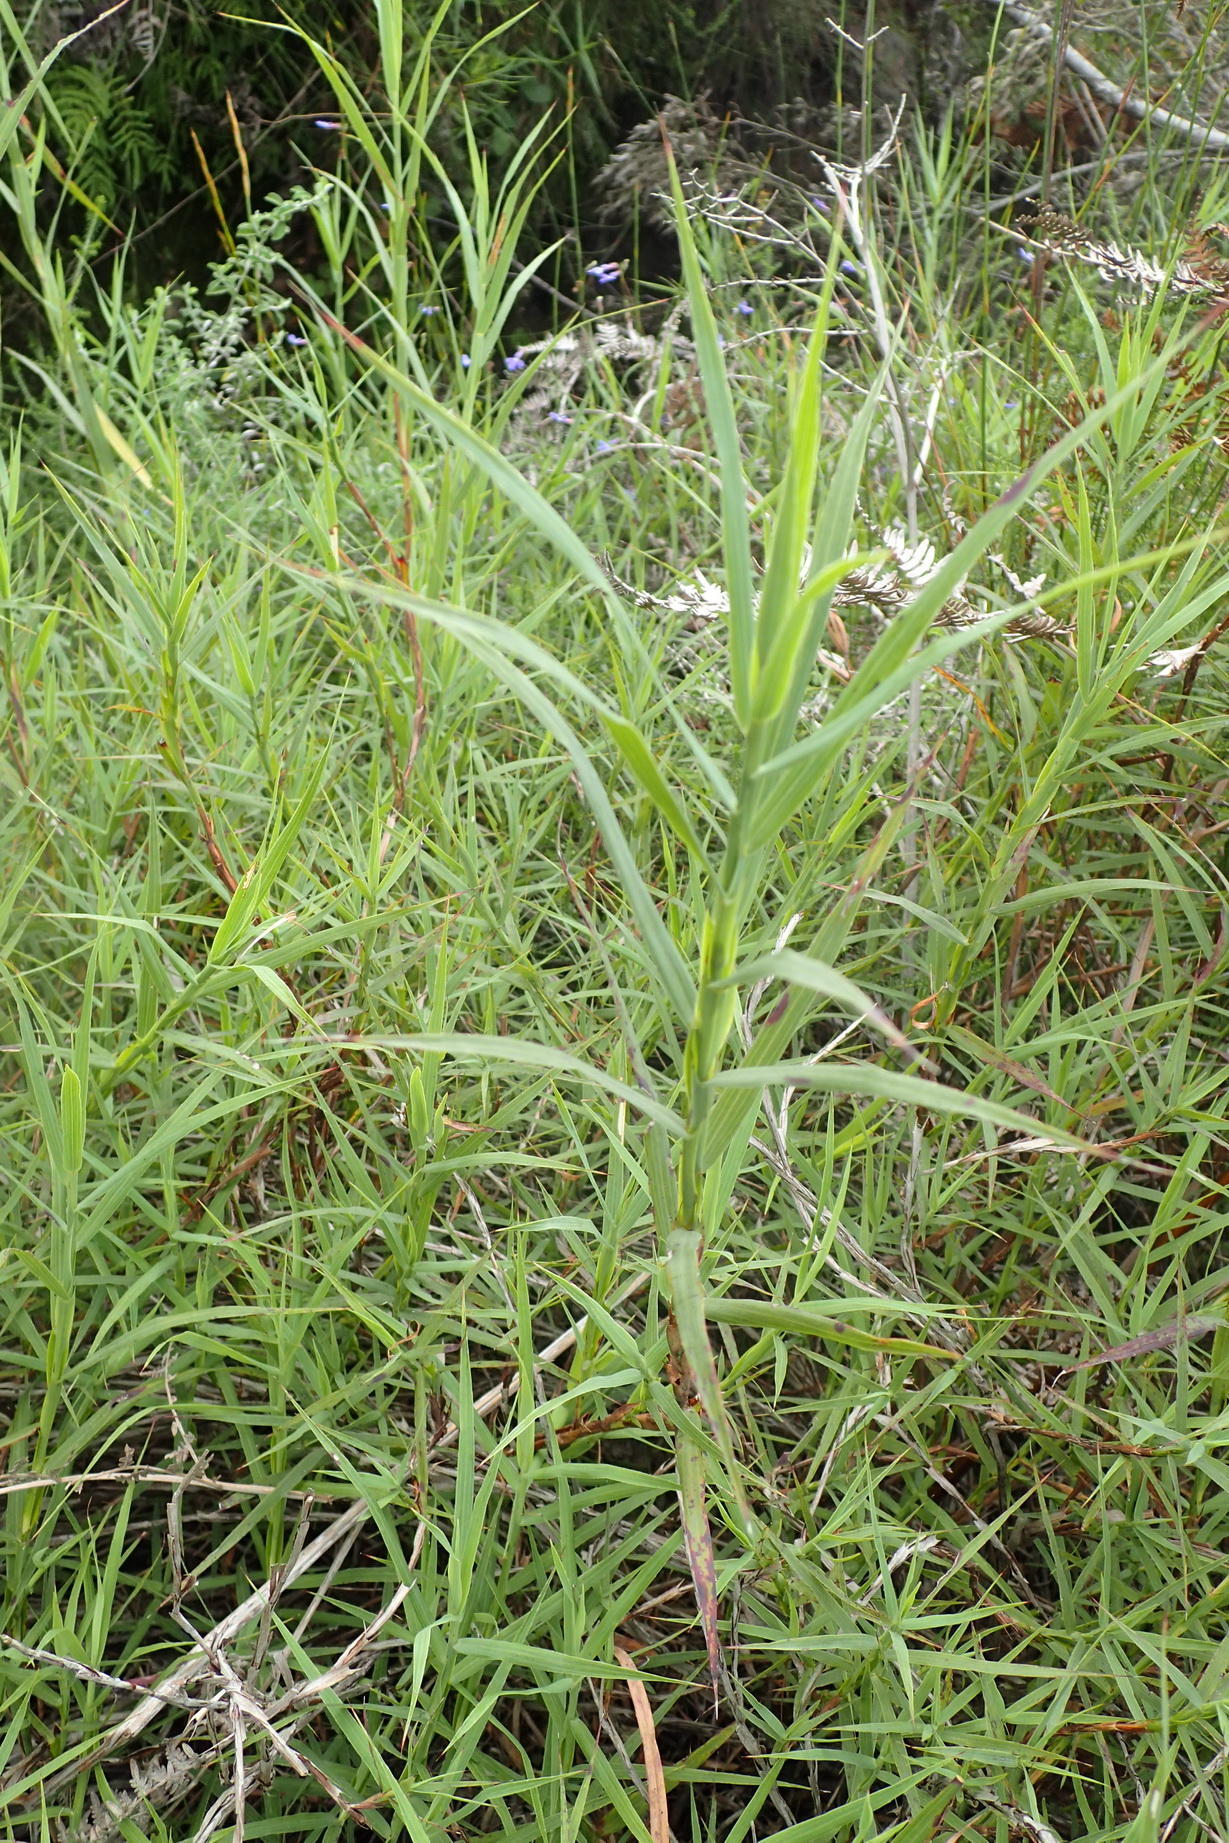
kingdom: Plantae
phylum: Tracheophyta
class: Magnoliopsida
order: Rosales
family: Rosaceae
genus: Cliffortia
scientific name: Cliffortia graminea
